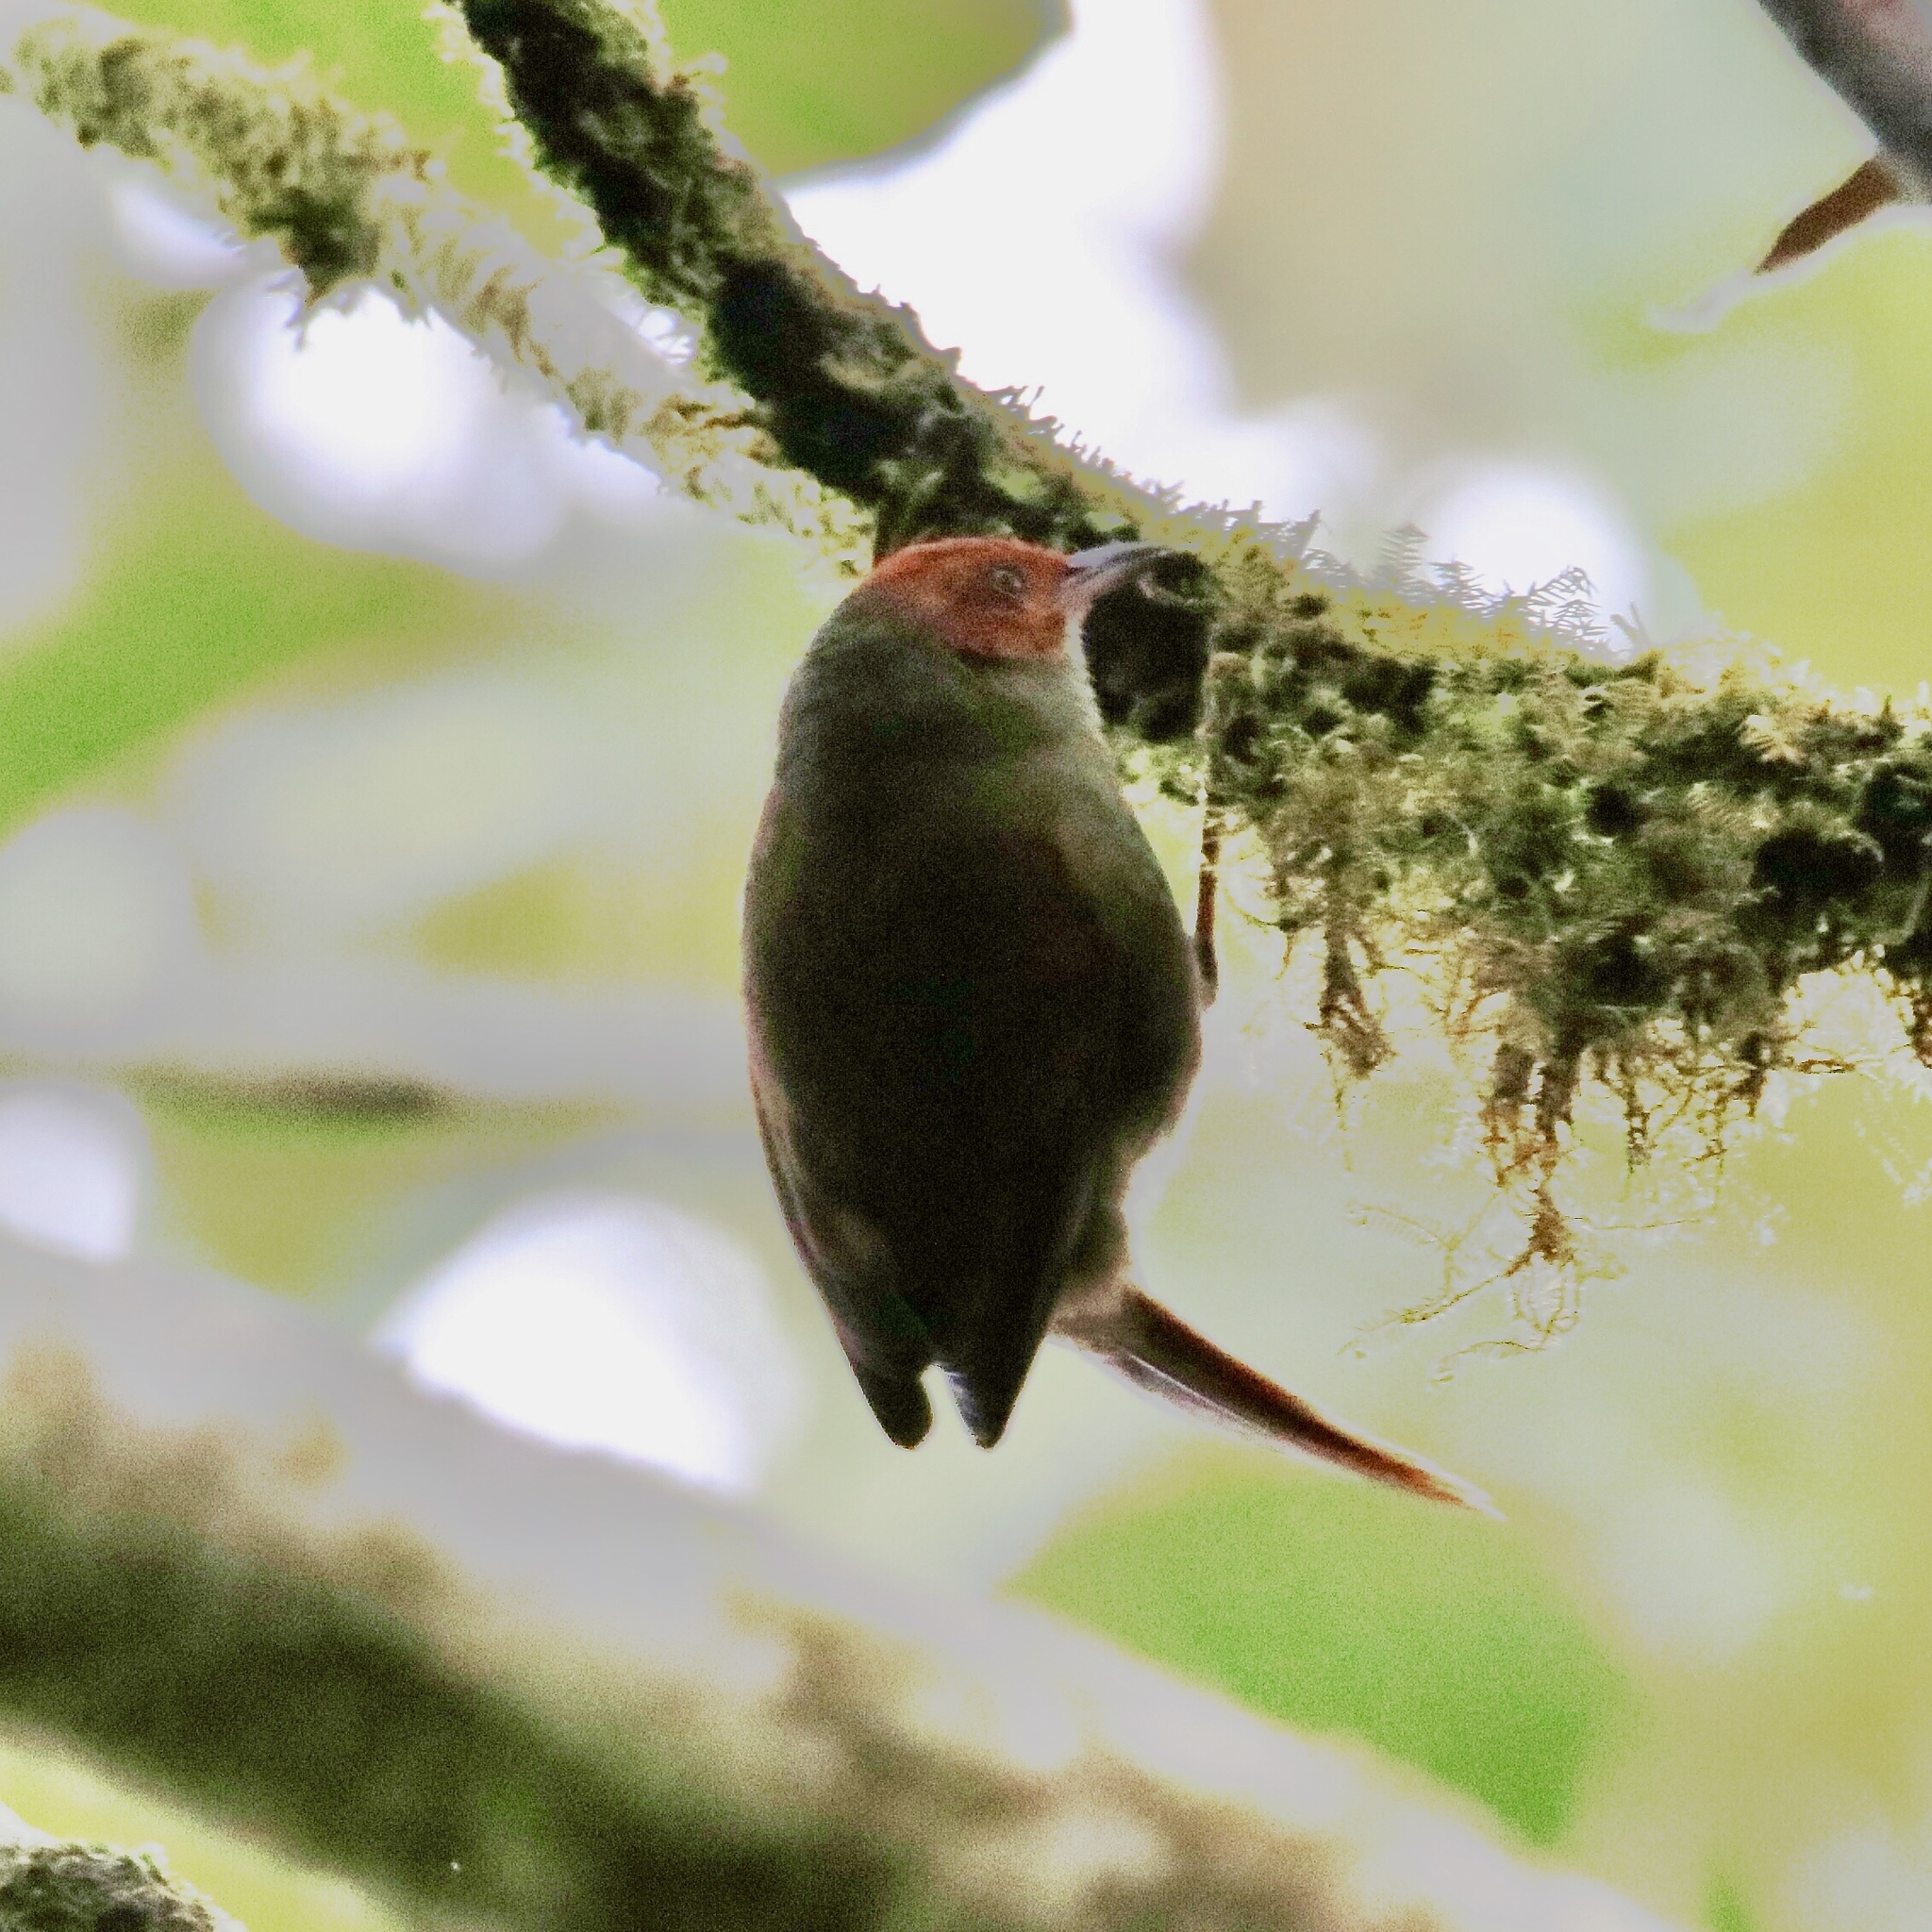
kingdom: Animalia
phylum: Chordata
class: Aves
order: Passeriformes
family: Furnariidae
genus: Cranioleuca
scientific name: Cranioleuca erythrops
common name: Red-faced spinetail
